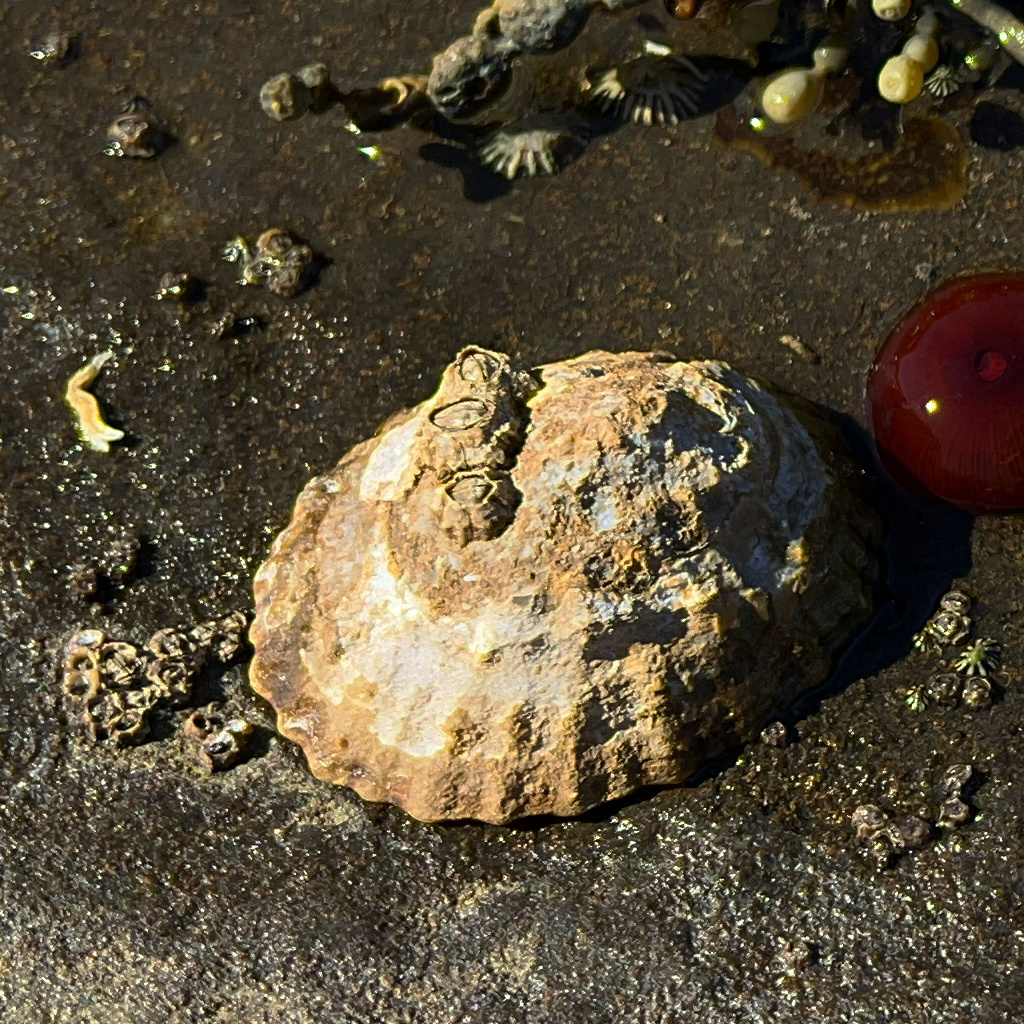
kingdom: Animalia
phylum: Mollusca
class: Gastropoda
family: Nacellidae
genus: Cellana
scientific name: Cellana solida
